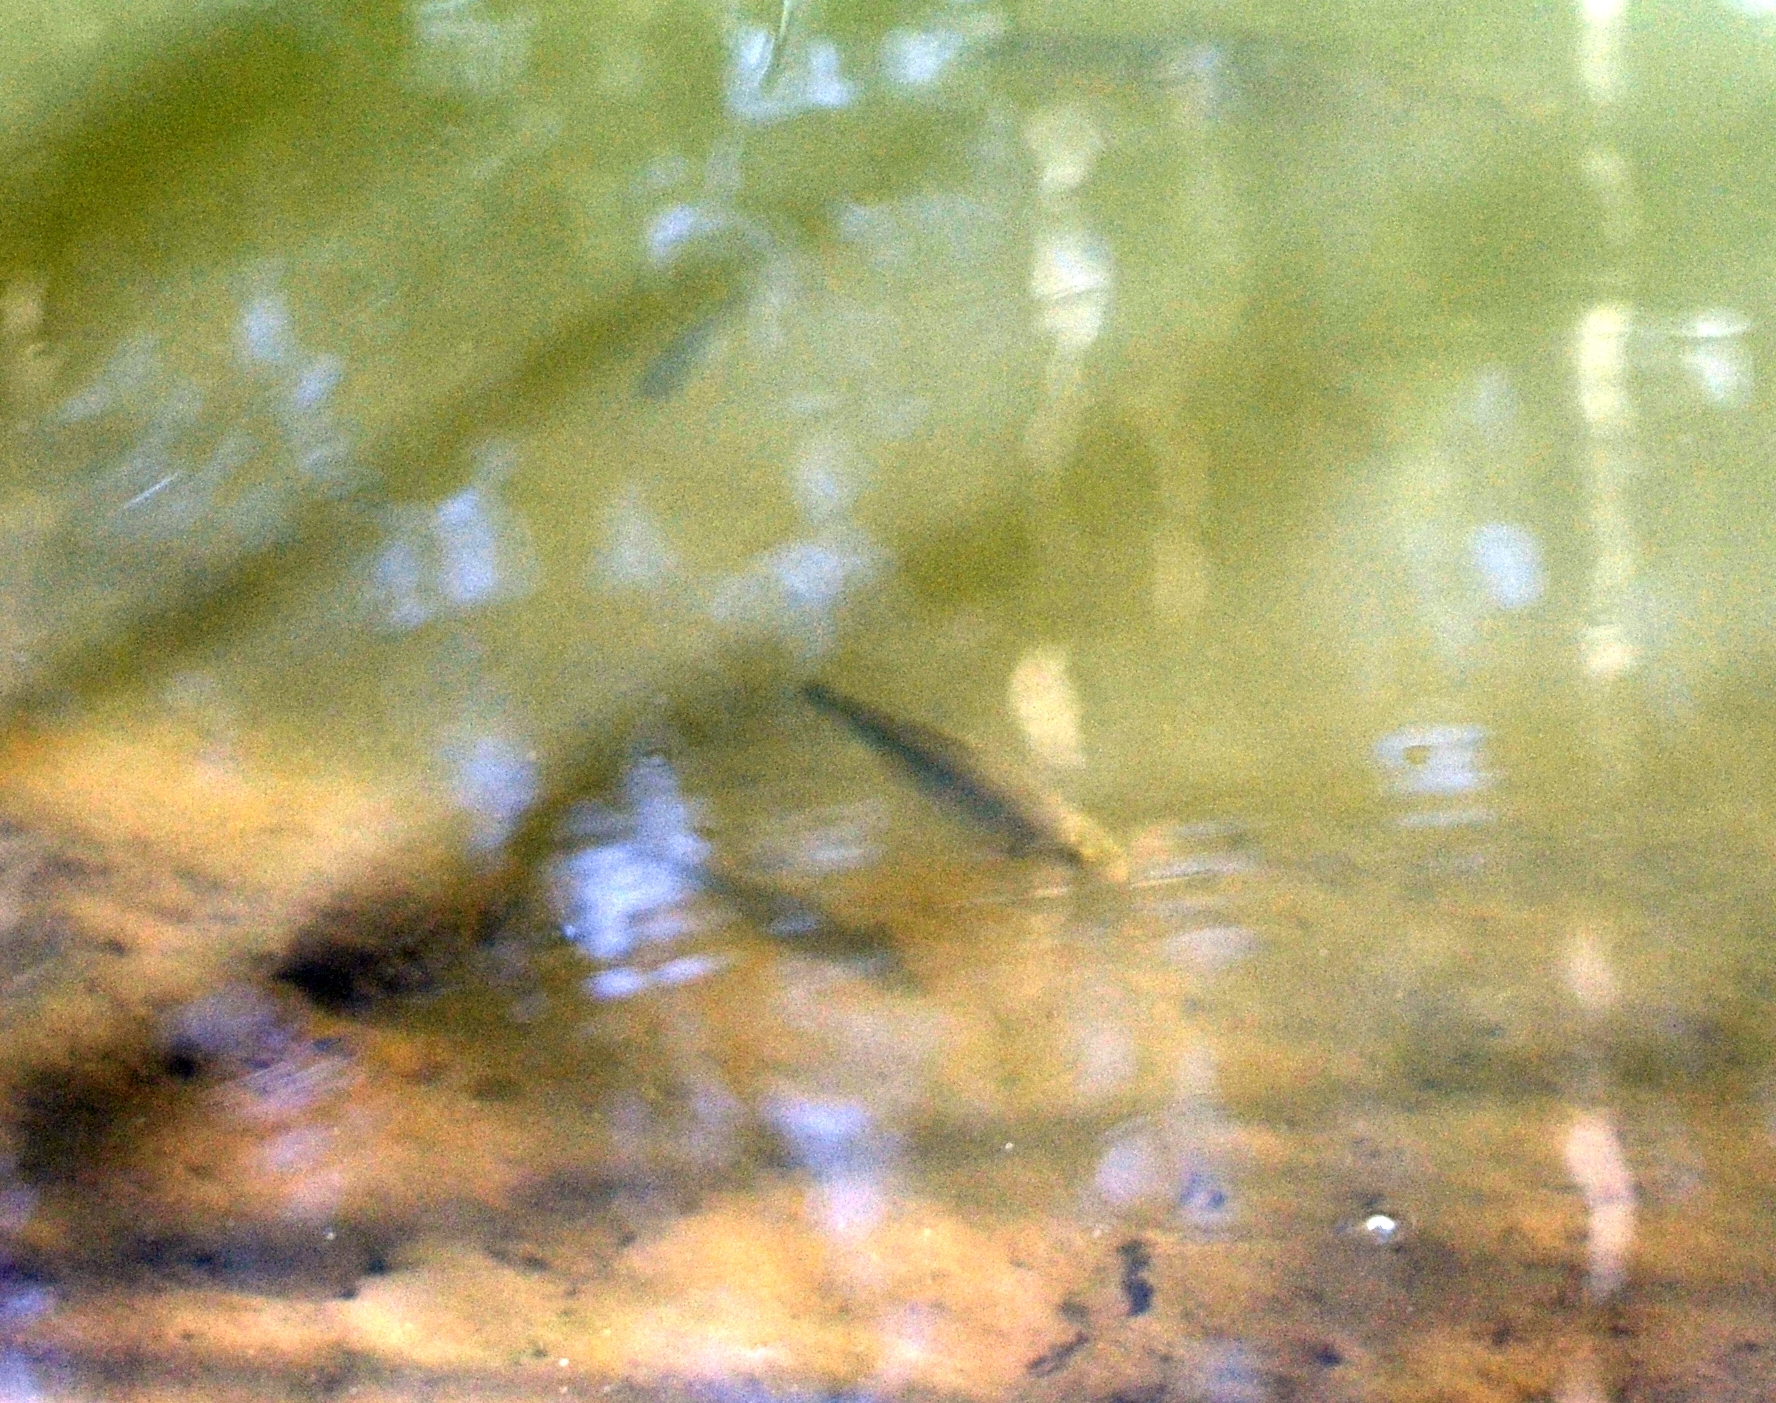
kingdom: Animalia
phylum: Chordata
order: Cypriniformes
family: Cyprinidae
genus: Squalius
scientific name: Squalius cephalus
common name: Chub
